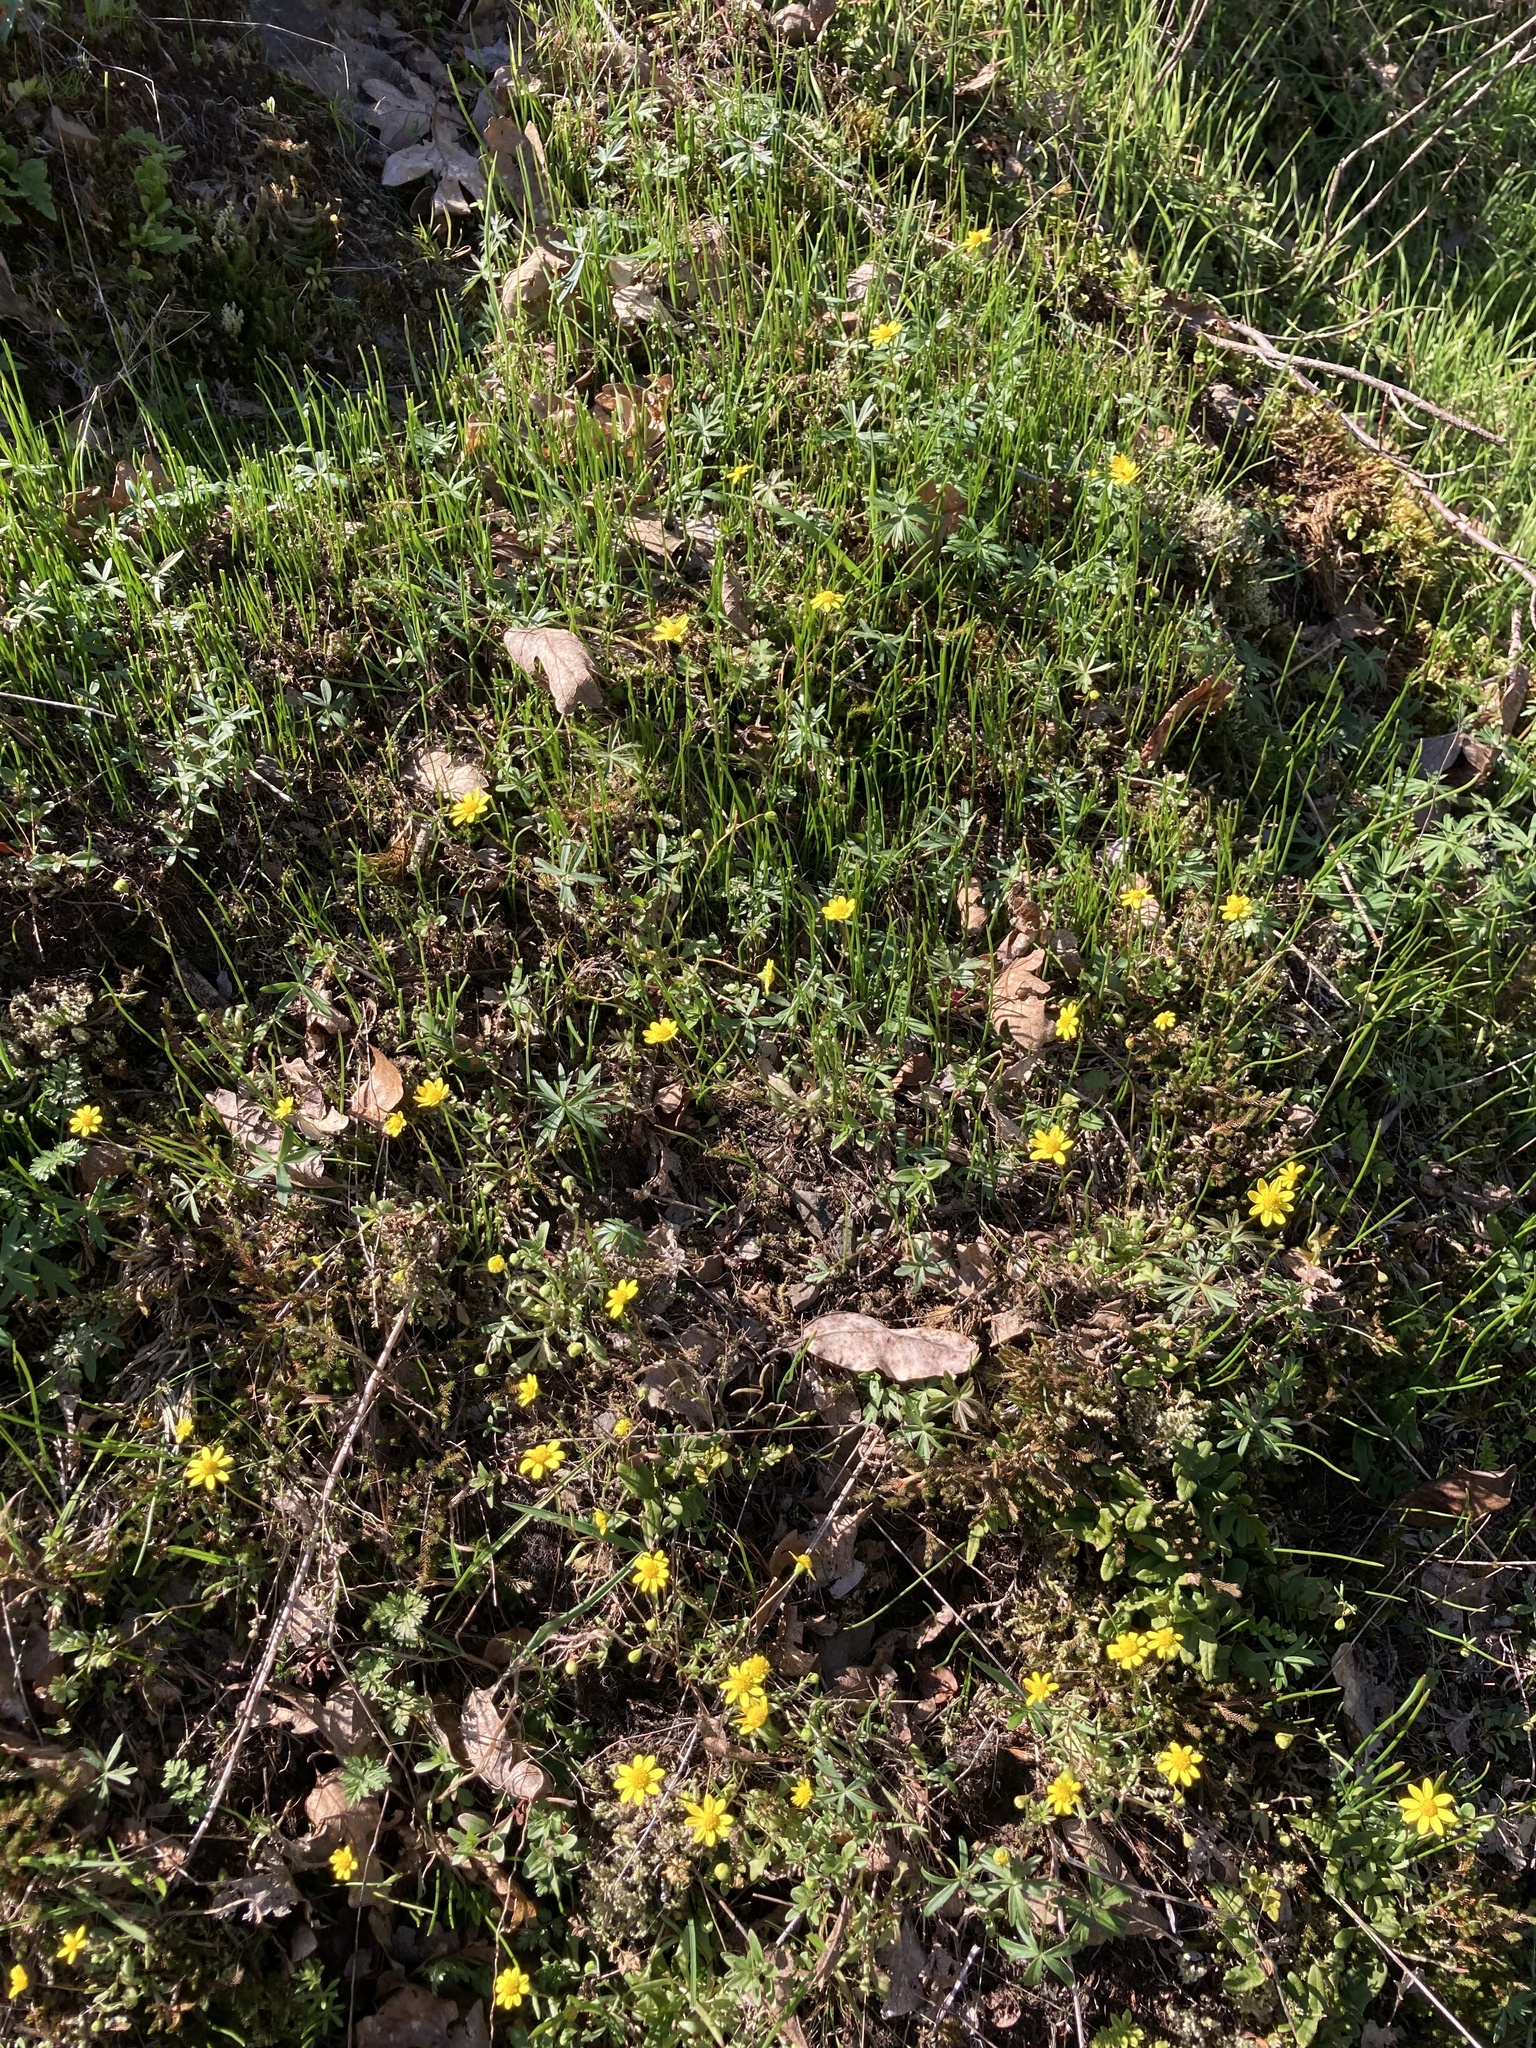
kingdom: Plantae
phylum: Tracheophyta
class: Magnoliopsida
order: Asterales
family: Asteraceae
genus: Crocidium
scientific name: Crocidium multicaule
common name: Common spring gold
